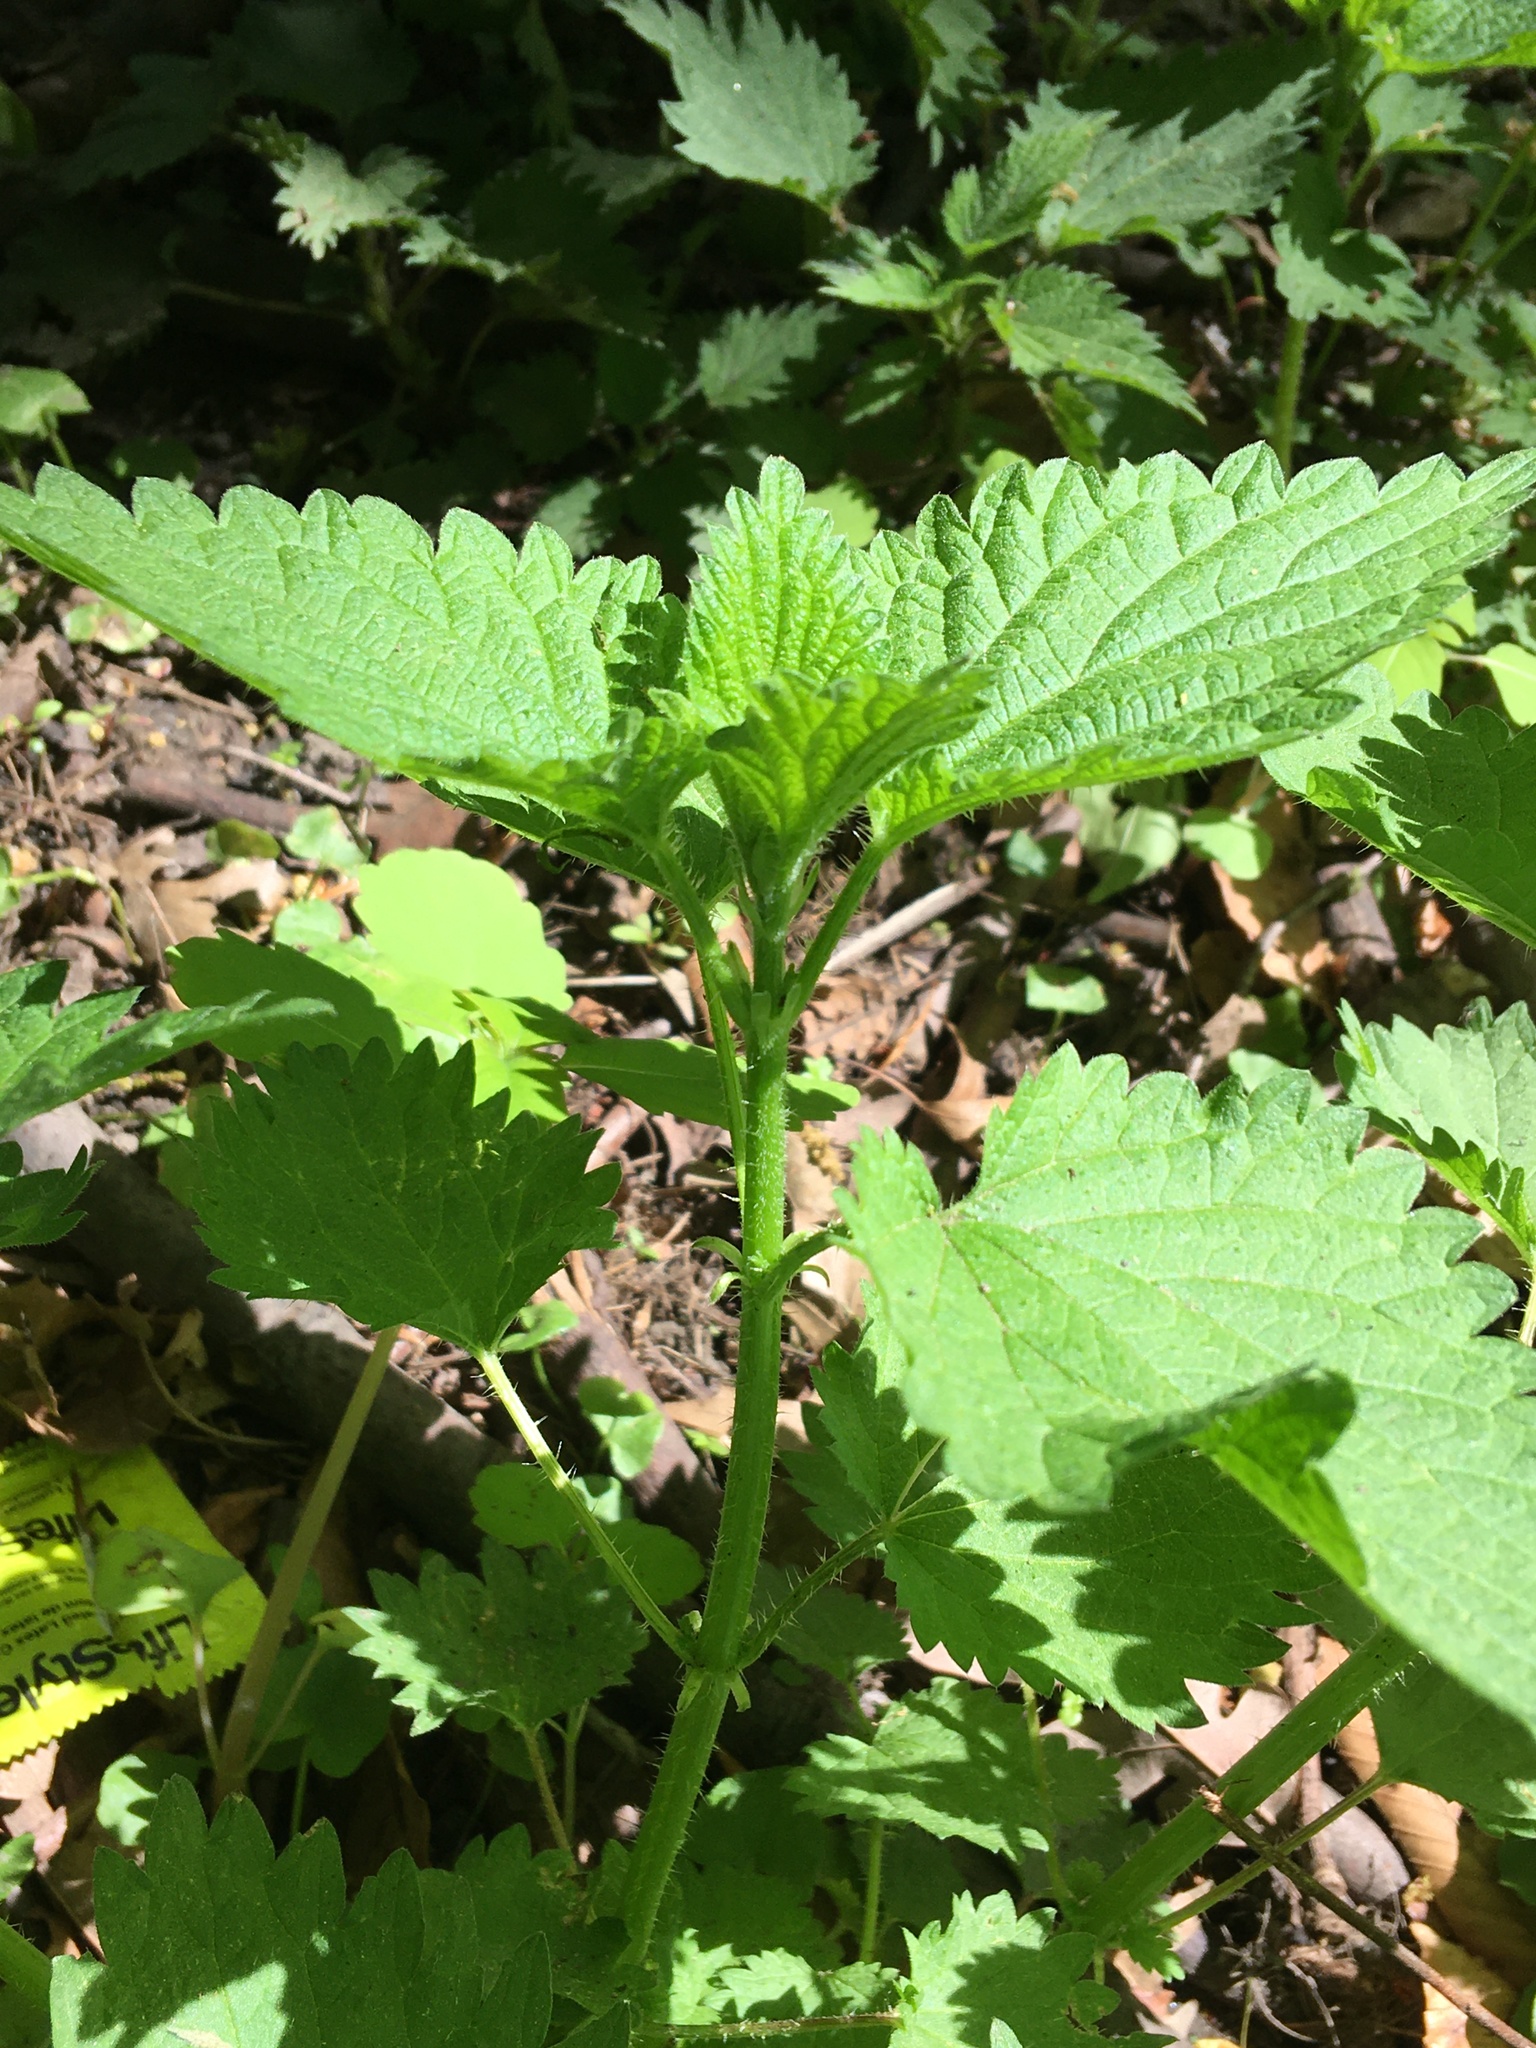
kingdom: Plantae
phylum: Tracheophyta
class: Magnoliopsida
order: Rosales
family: Urticaceae
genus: Urtica
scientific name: Urtica dioica
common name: Common nettle
